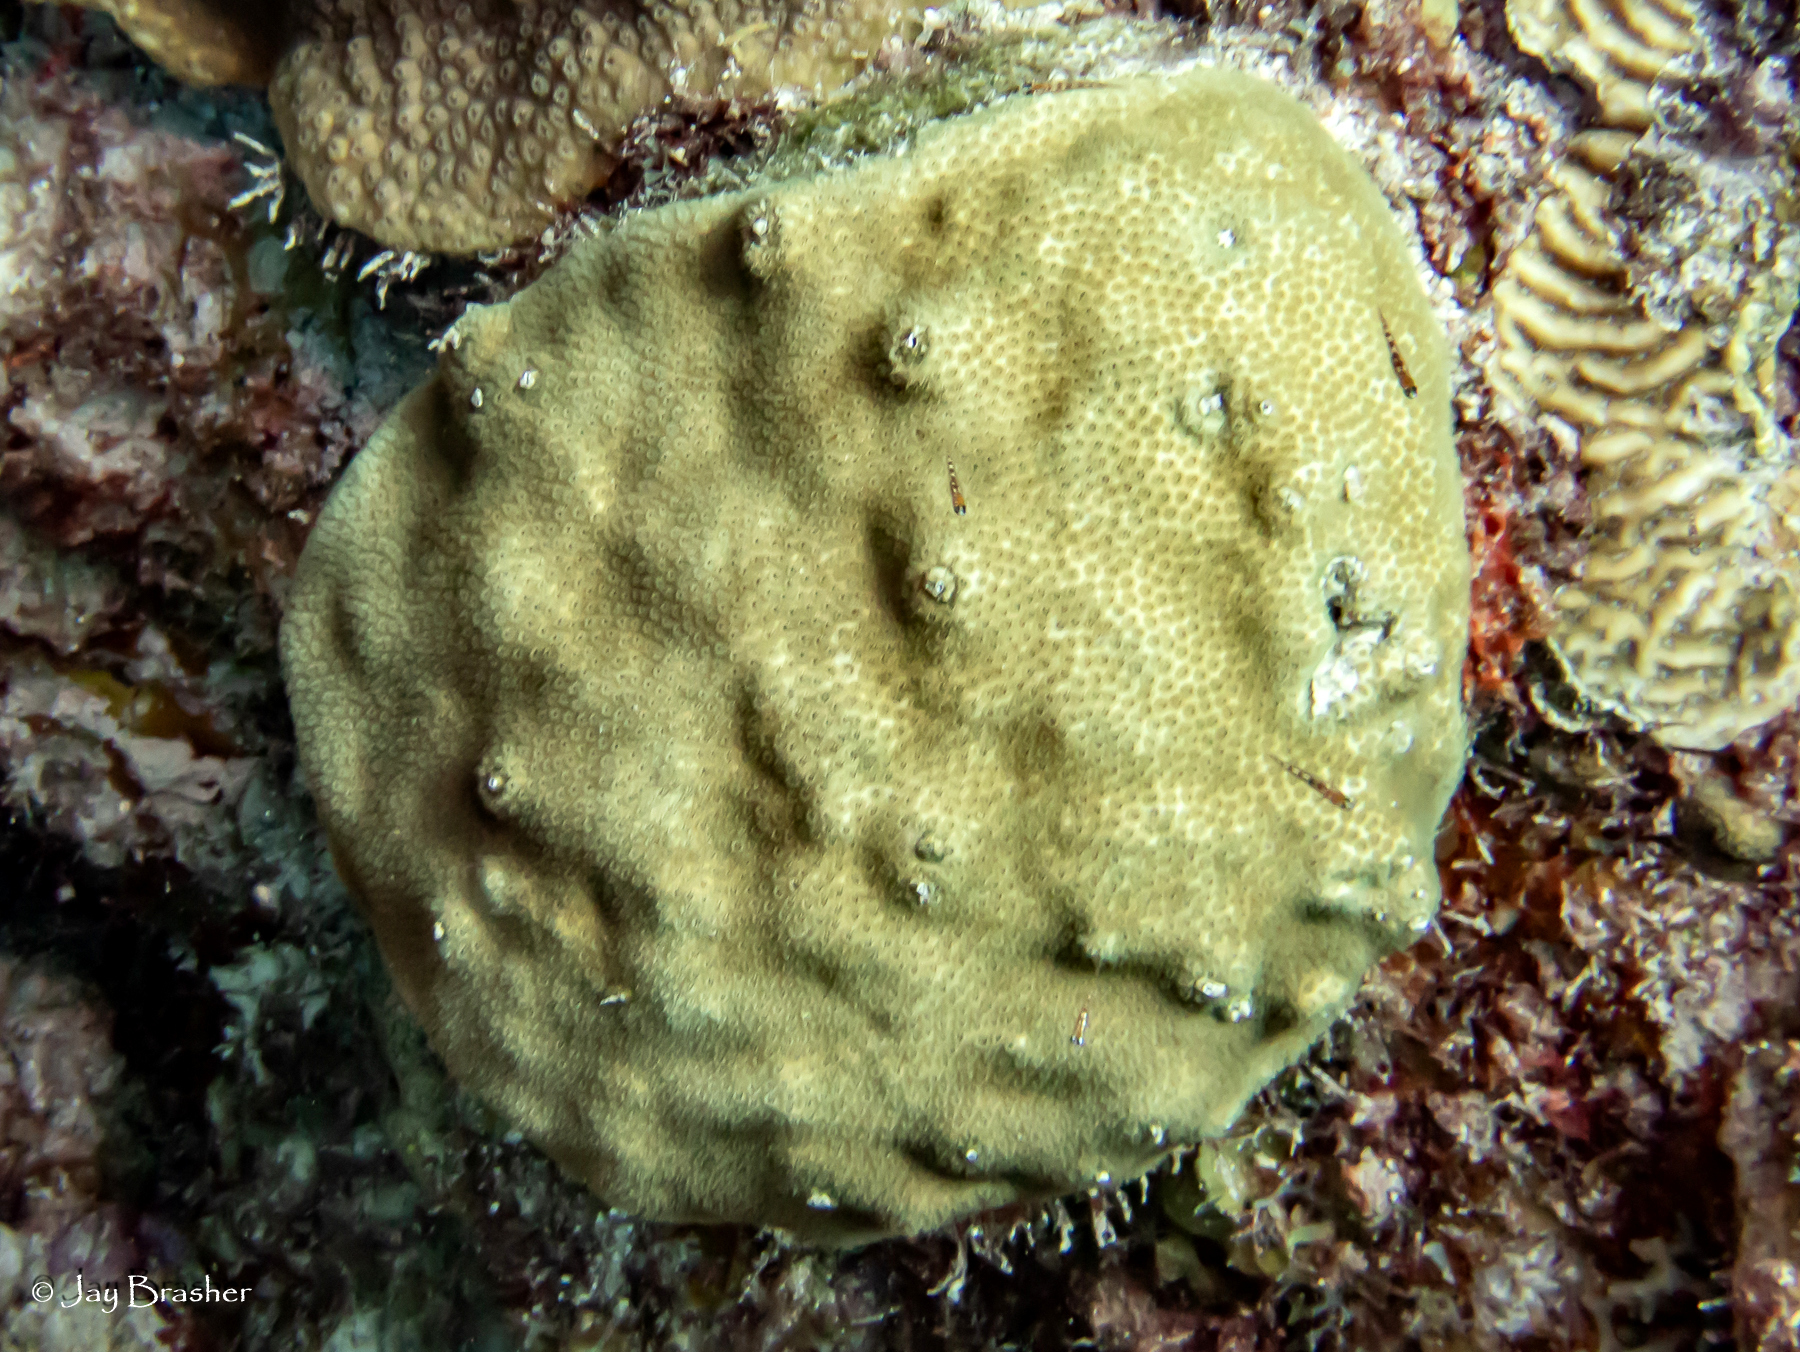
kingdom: Animalia
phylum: Cnidaria
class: Anthozoa
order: Scleractinia
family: Faviidae
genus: Solenastrea
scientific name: Solenastrea bournoni
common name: Smooth star coral
